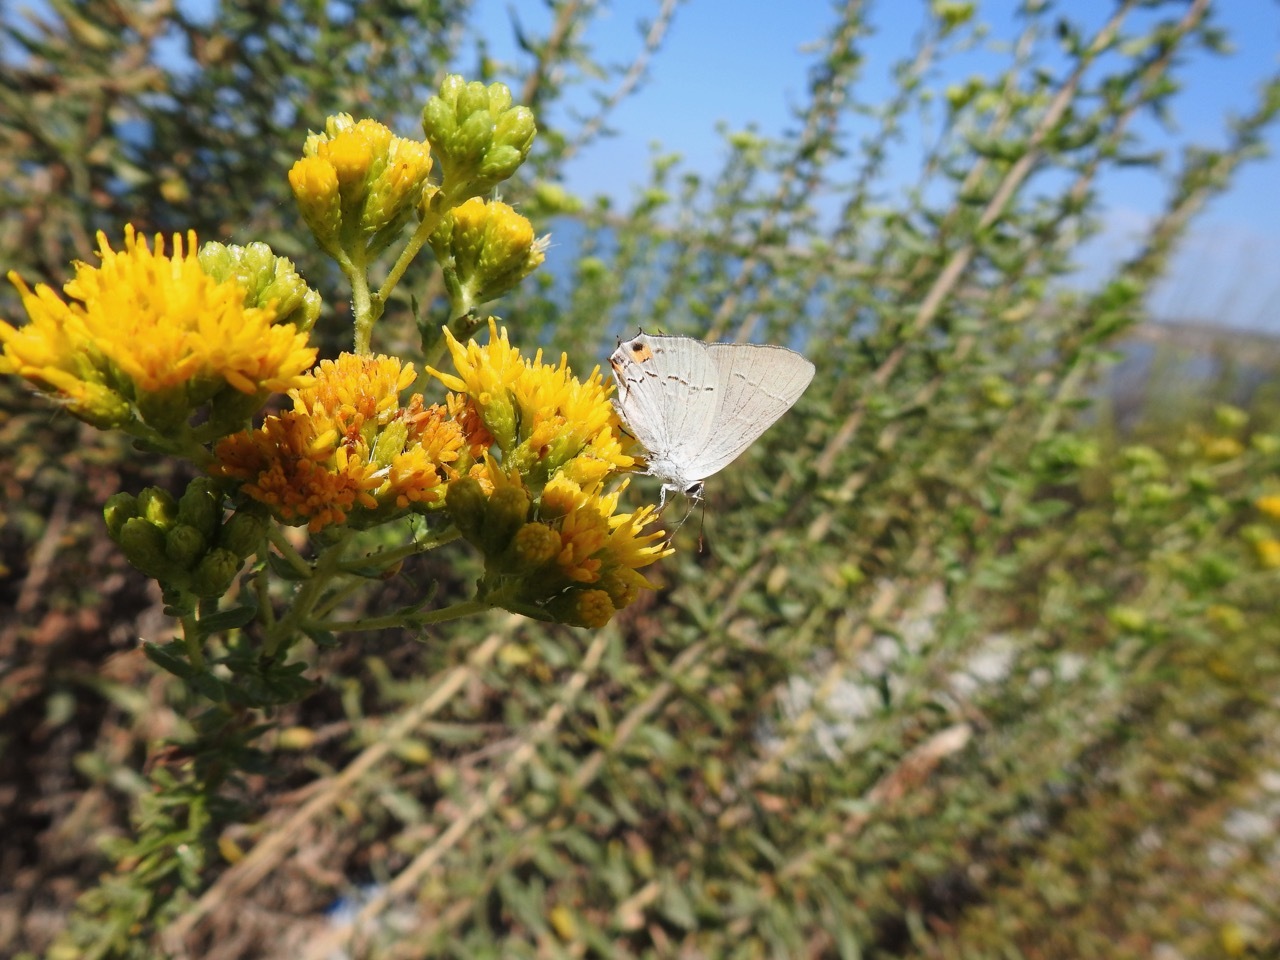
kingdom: Animalia
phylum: Arthropoda
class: Insecta
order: Lepidoptera
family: Lycaenidae
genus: Strymon
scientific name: Strymon melinus
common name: Gray hairstreak
